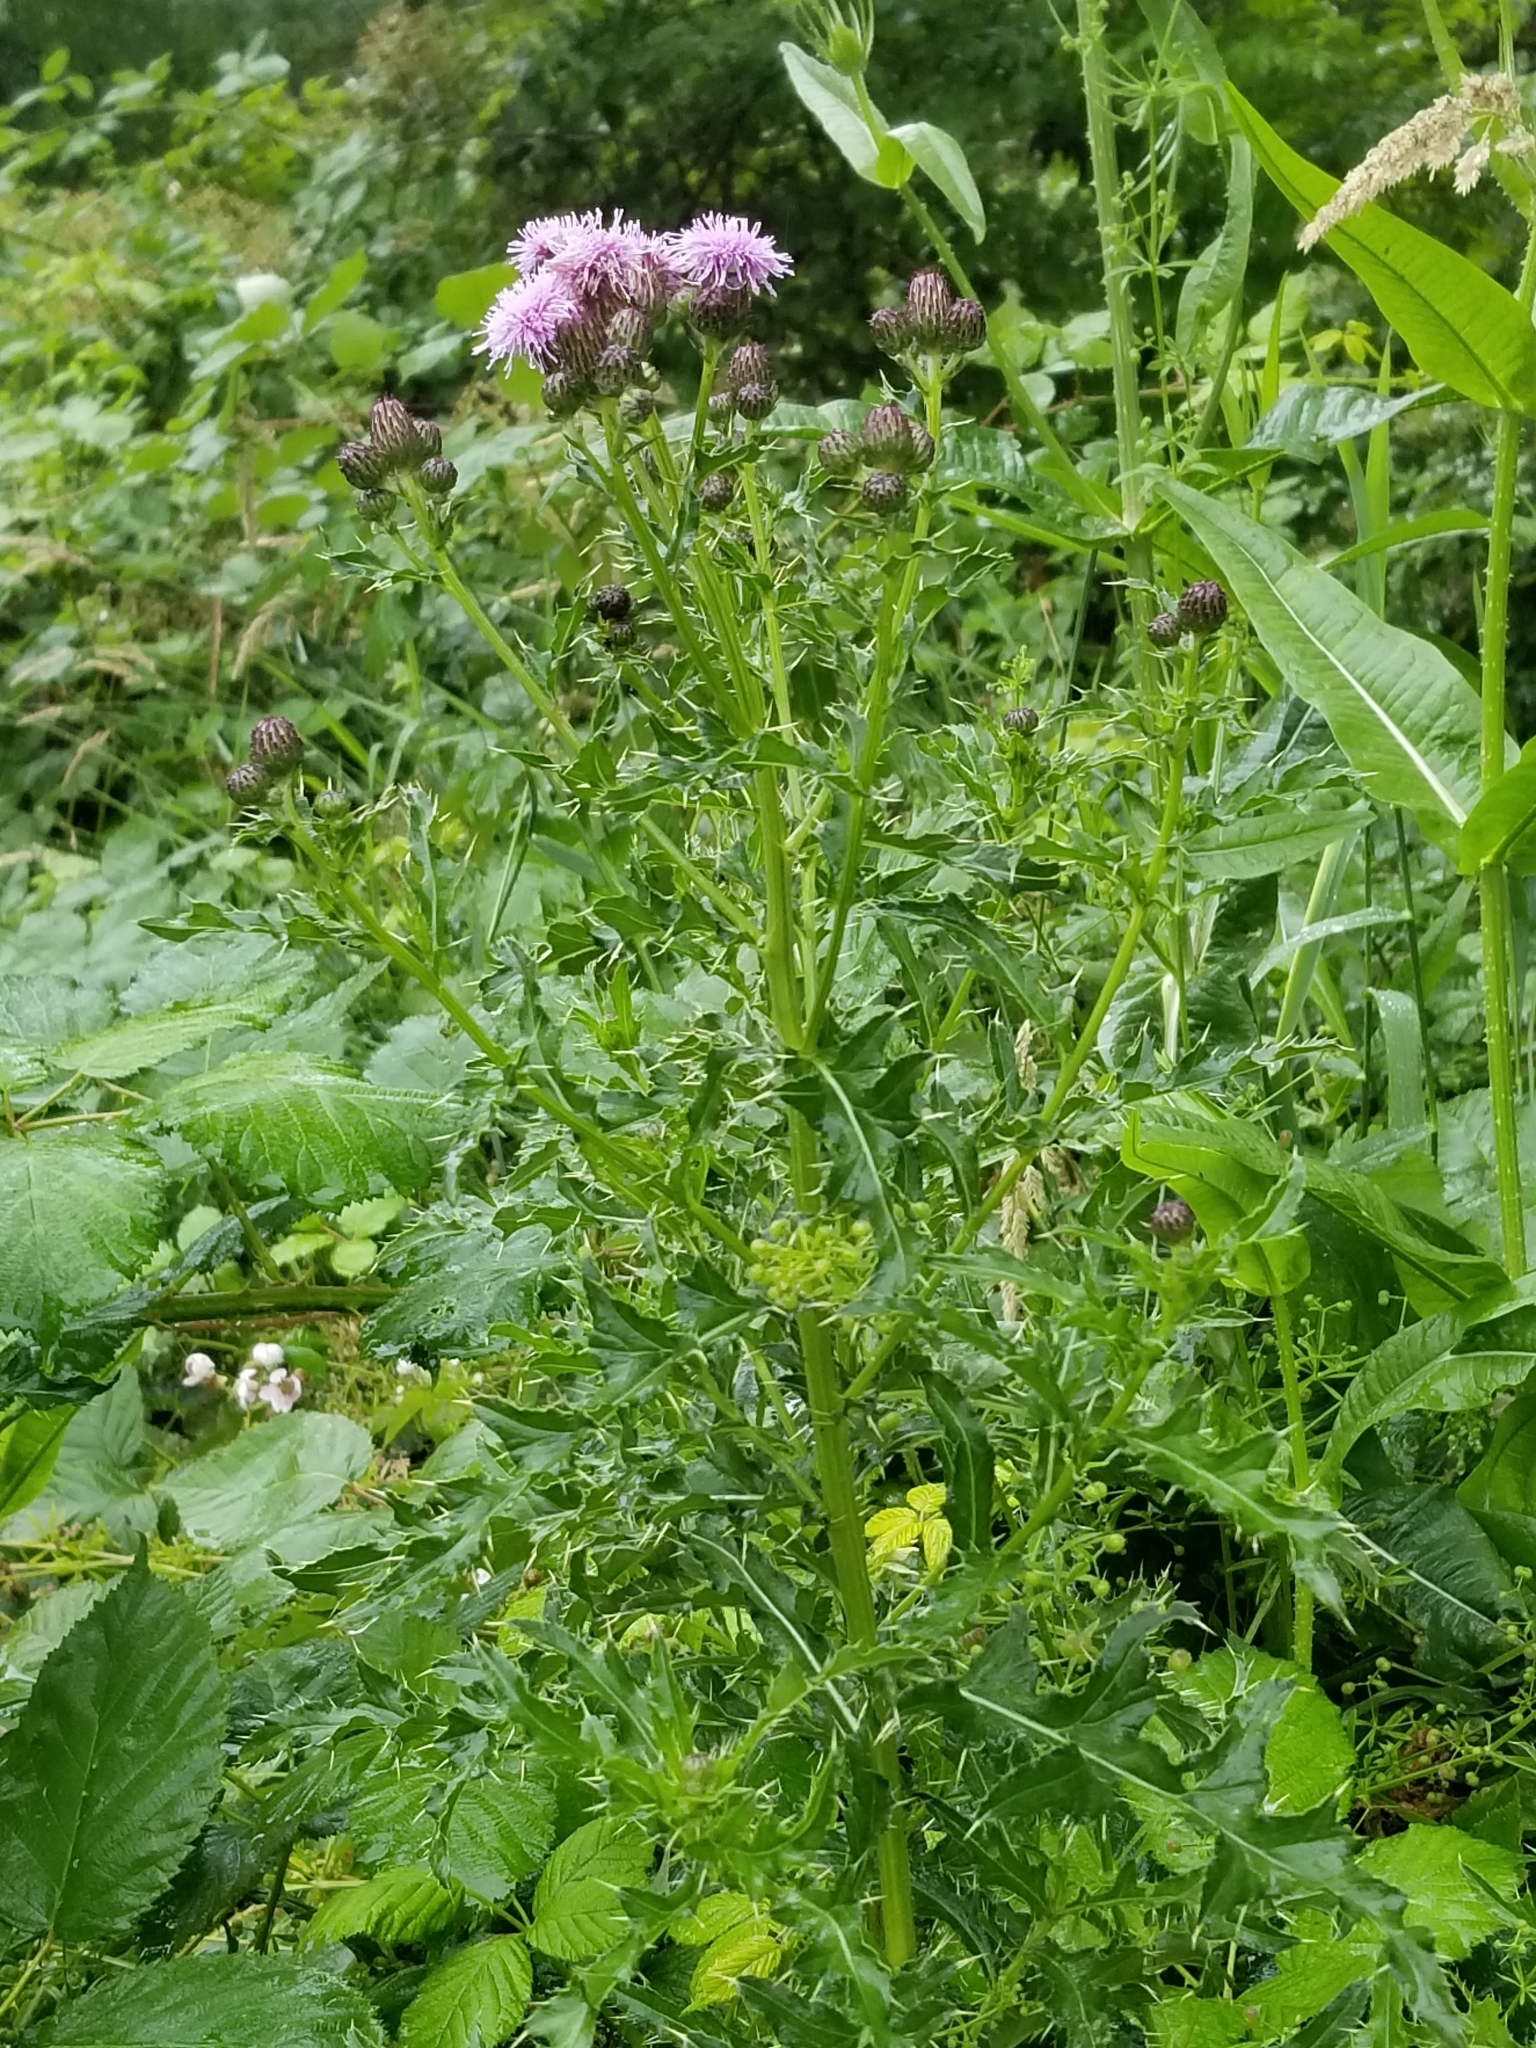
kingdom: Plantae
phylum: Tracheophyta
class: Magnoliopsida
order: Asterales
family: Asteraceae
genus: Cirsium
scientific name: Cirsium arvense
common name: Creeping thistle
